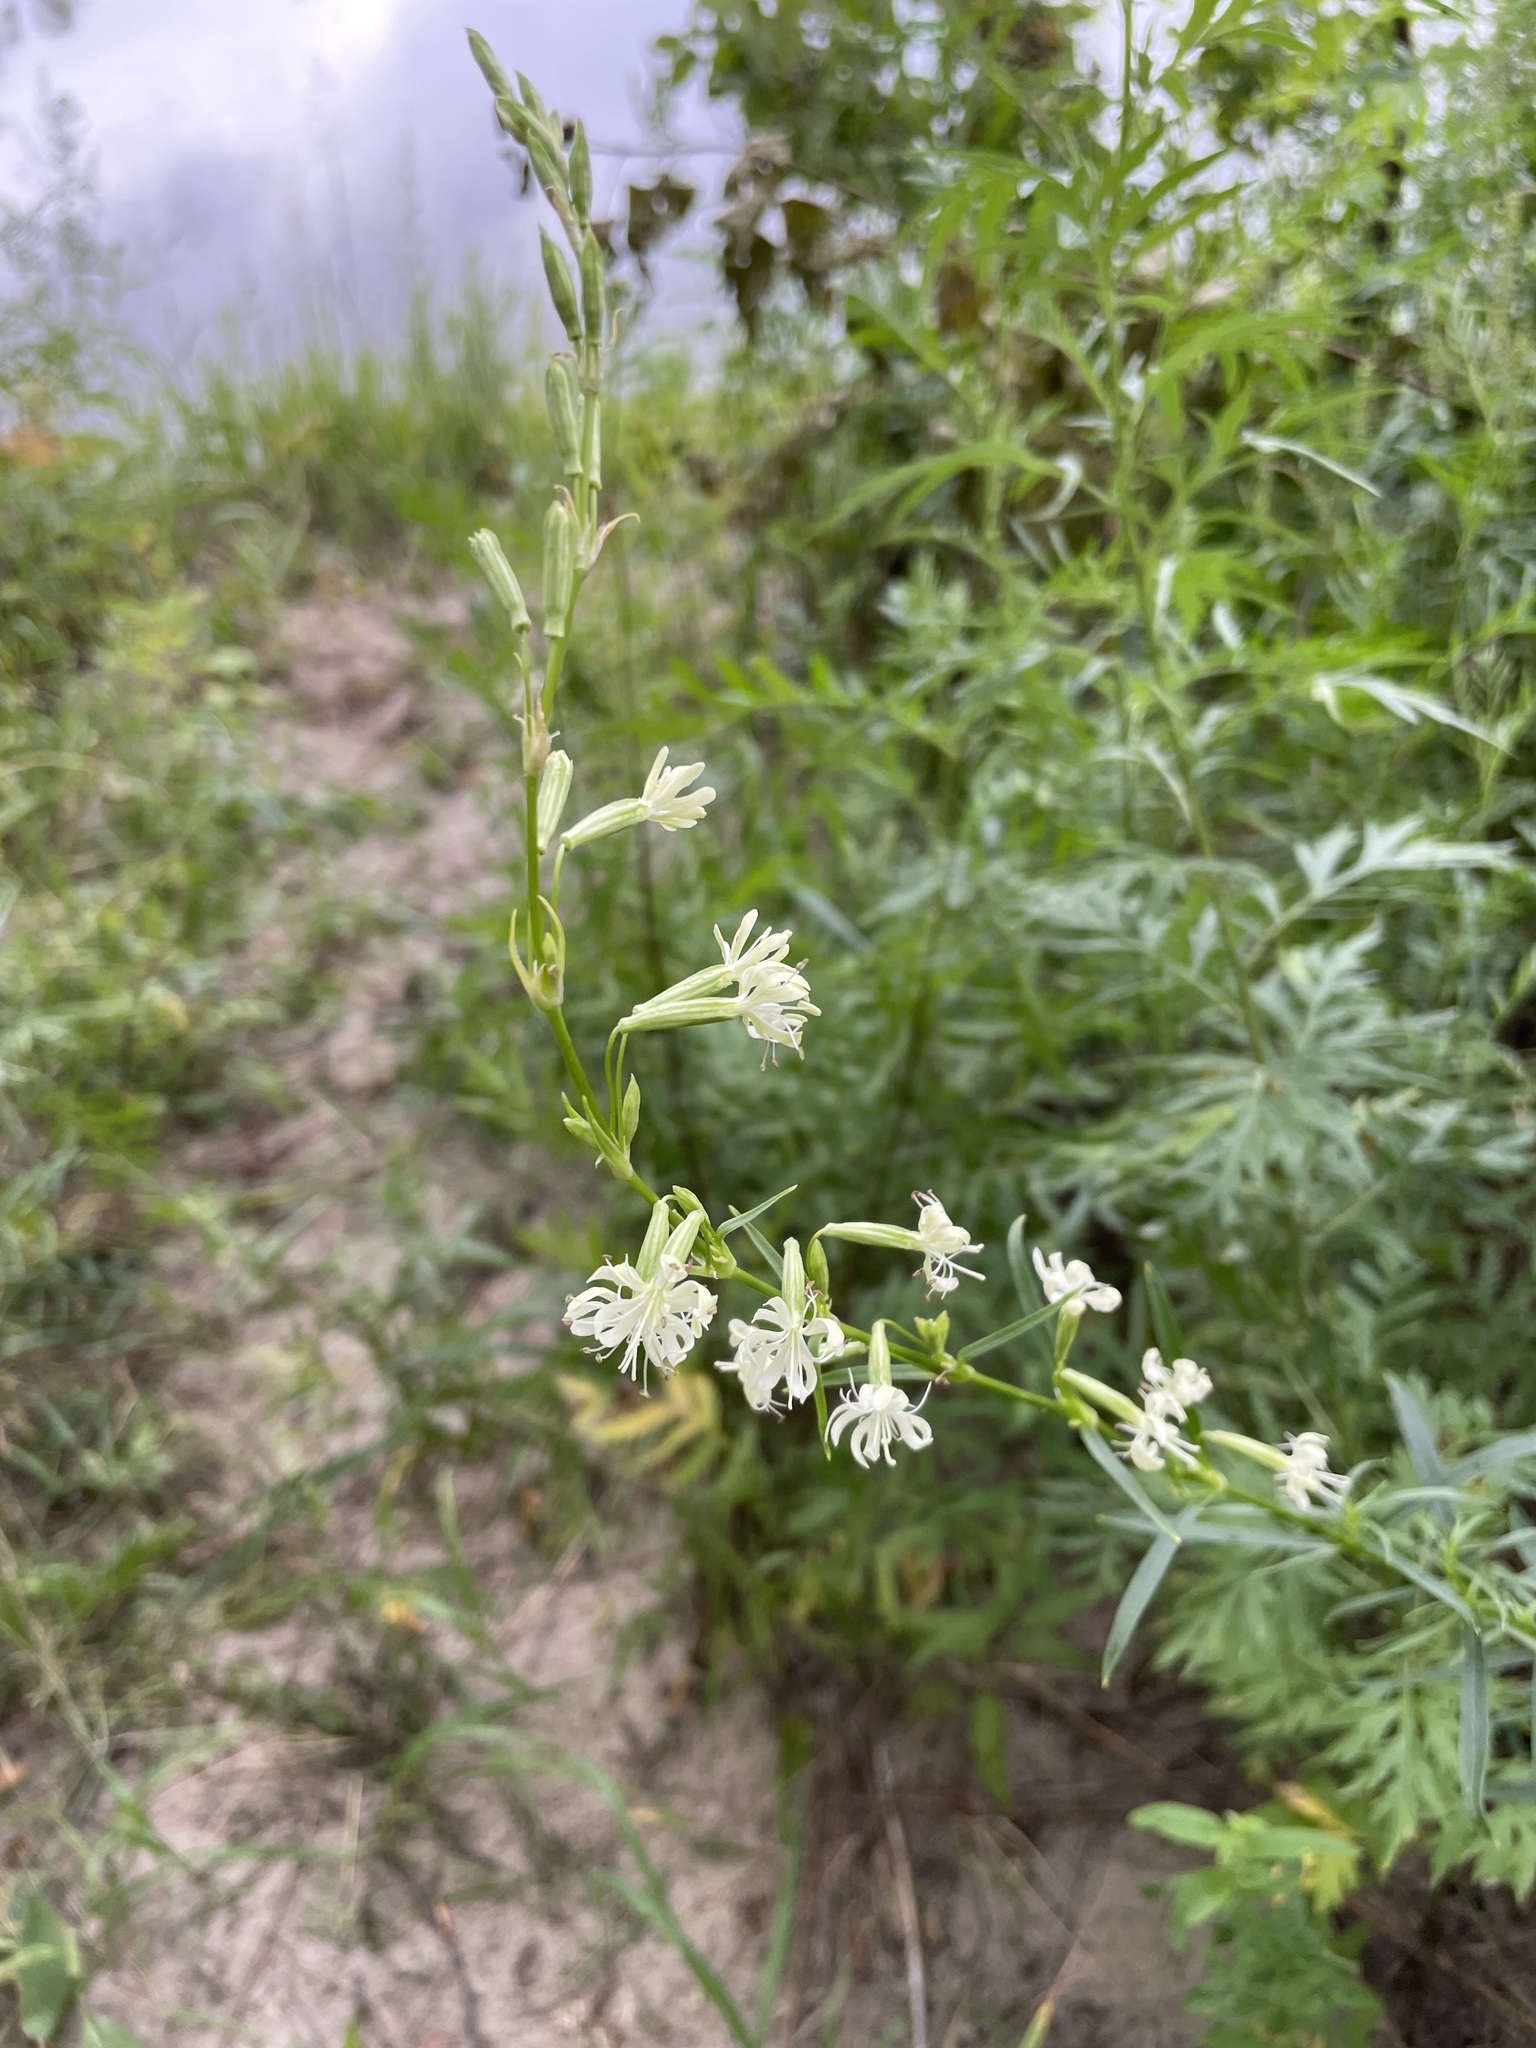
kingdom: Plantae
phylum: Tracheophyta
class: Magnoliopsida
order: Caryophyllales
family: Caryophyllaceae
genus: Silene
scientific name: Silene tatarica
